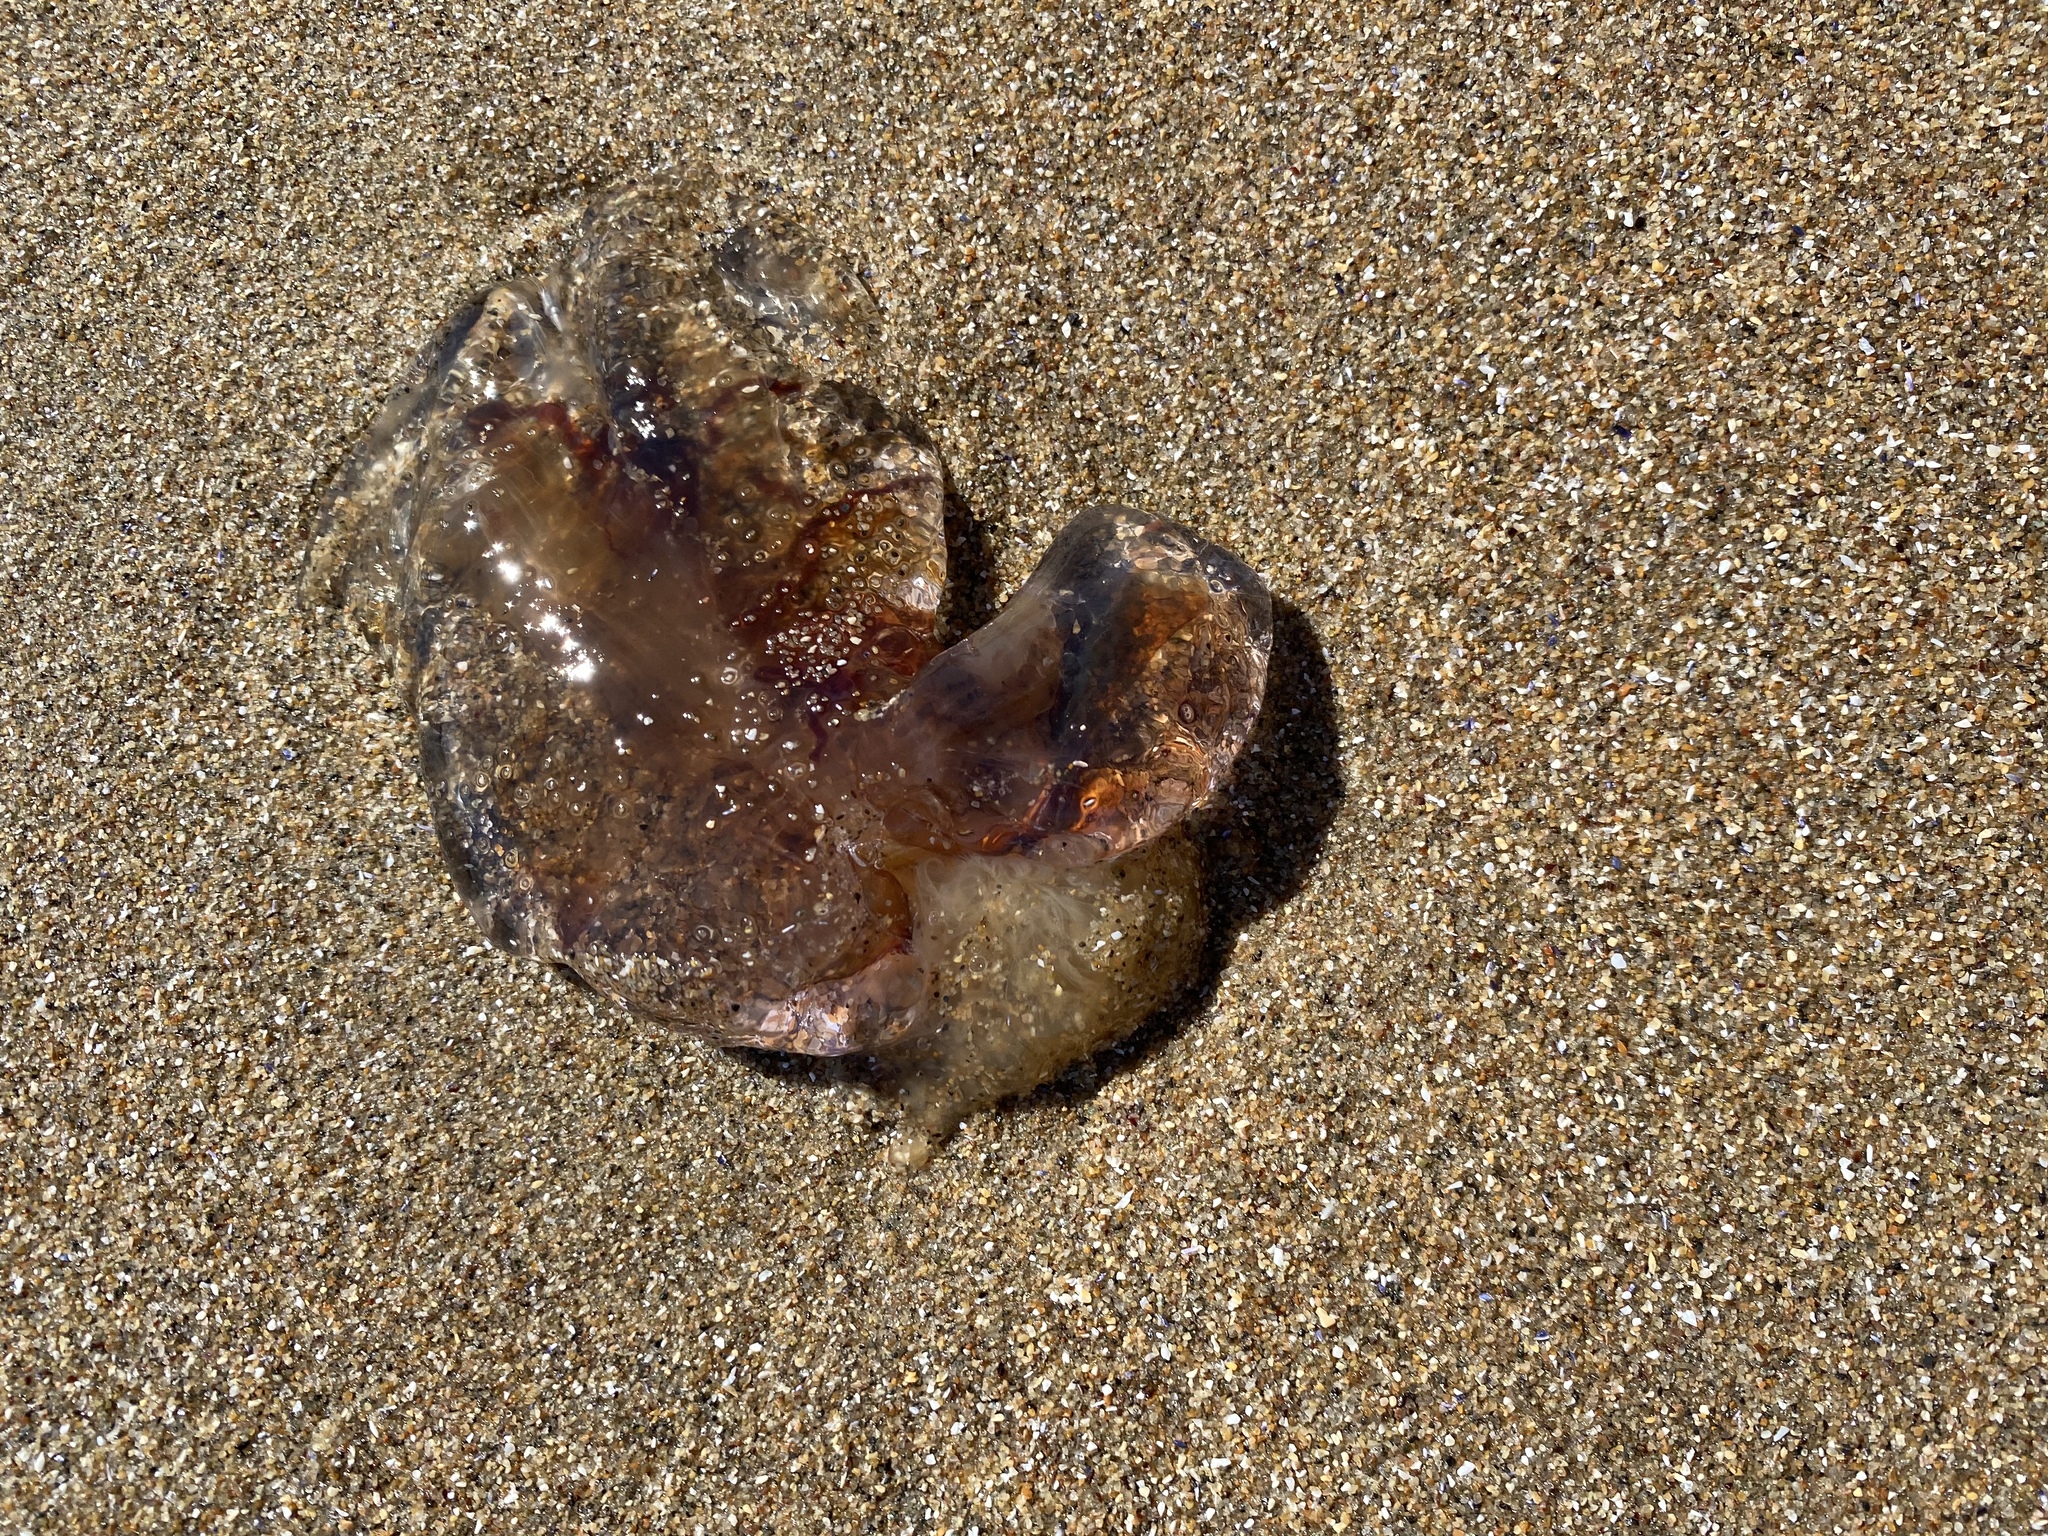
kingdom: Animalia
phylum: Cnidaria
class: Scyphozoa
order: Semaeostomeae
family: Cyaneidae
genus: Cyanea
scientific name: Cyanea fulva
